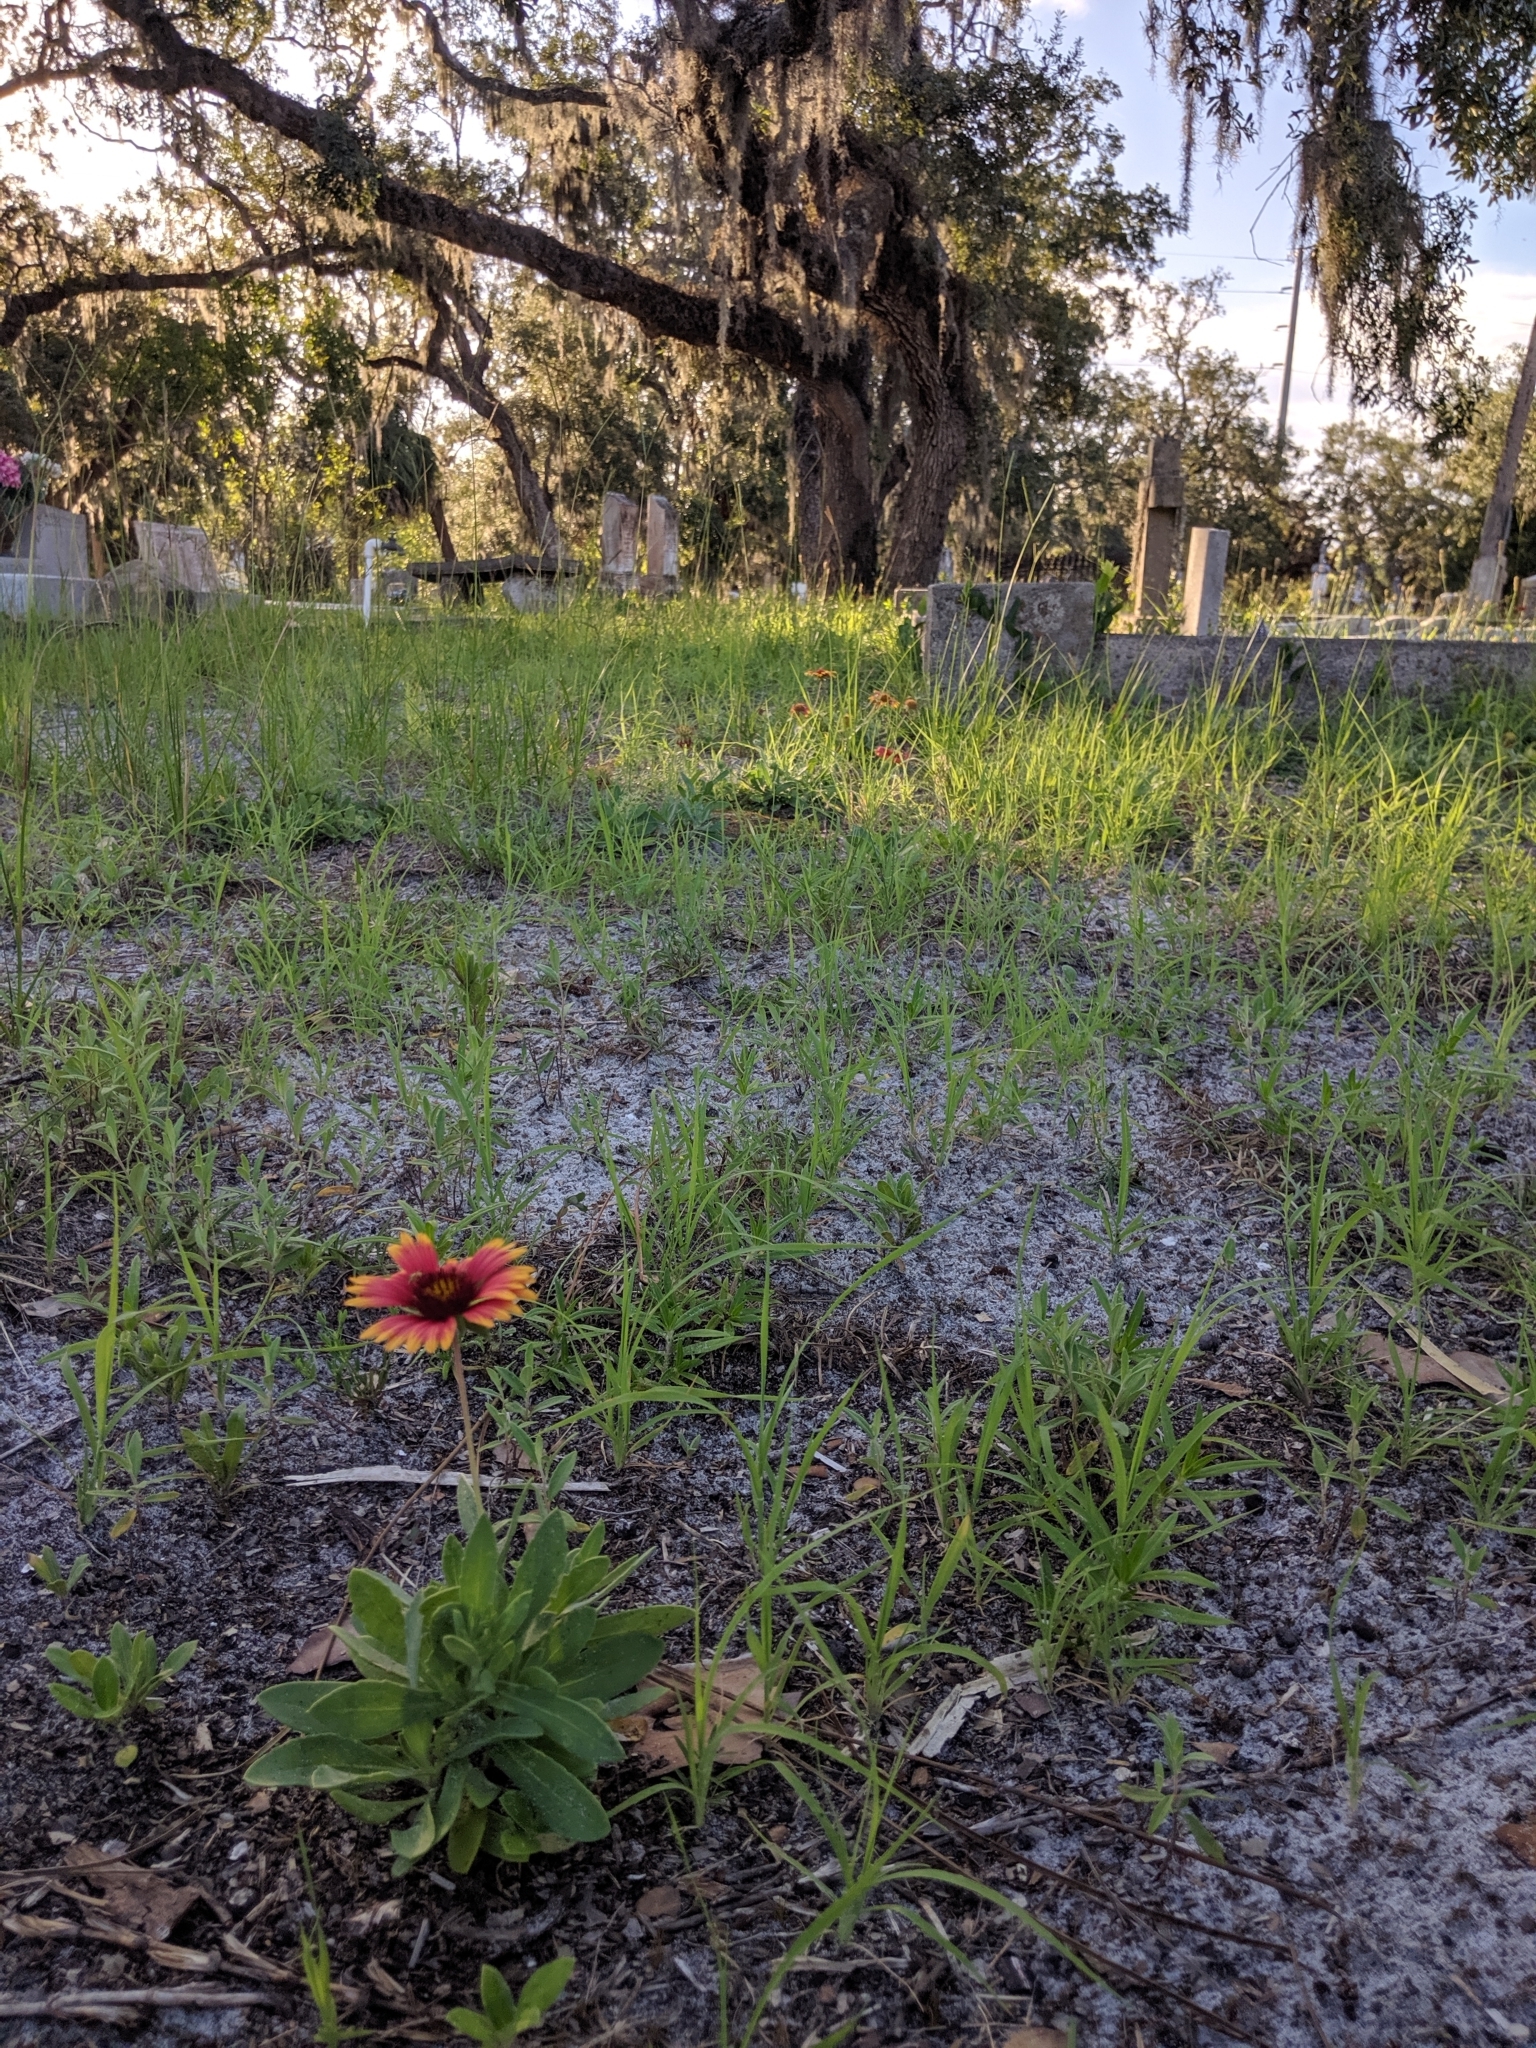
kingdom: Plantae
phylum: Tracheophyta
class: Magnoliopsida
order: Asterales
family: Asteraceae
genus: Gaillardia
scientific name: Gaillardia pulchella
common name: Firewheel
